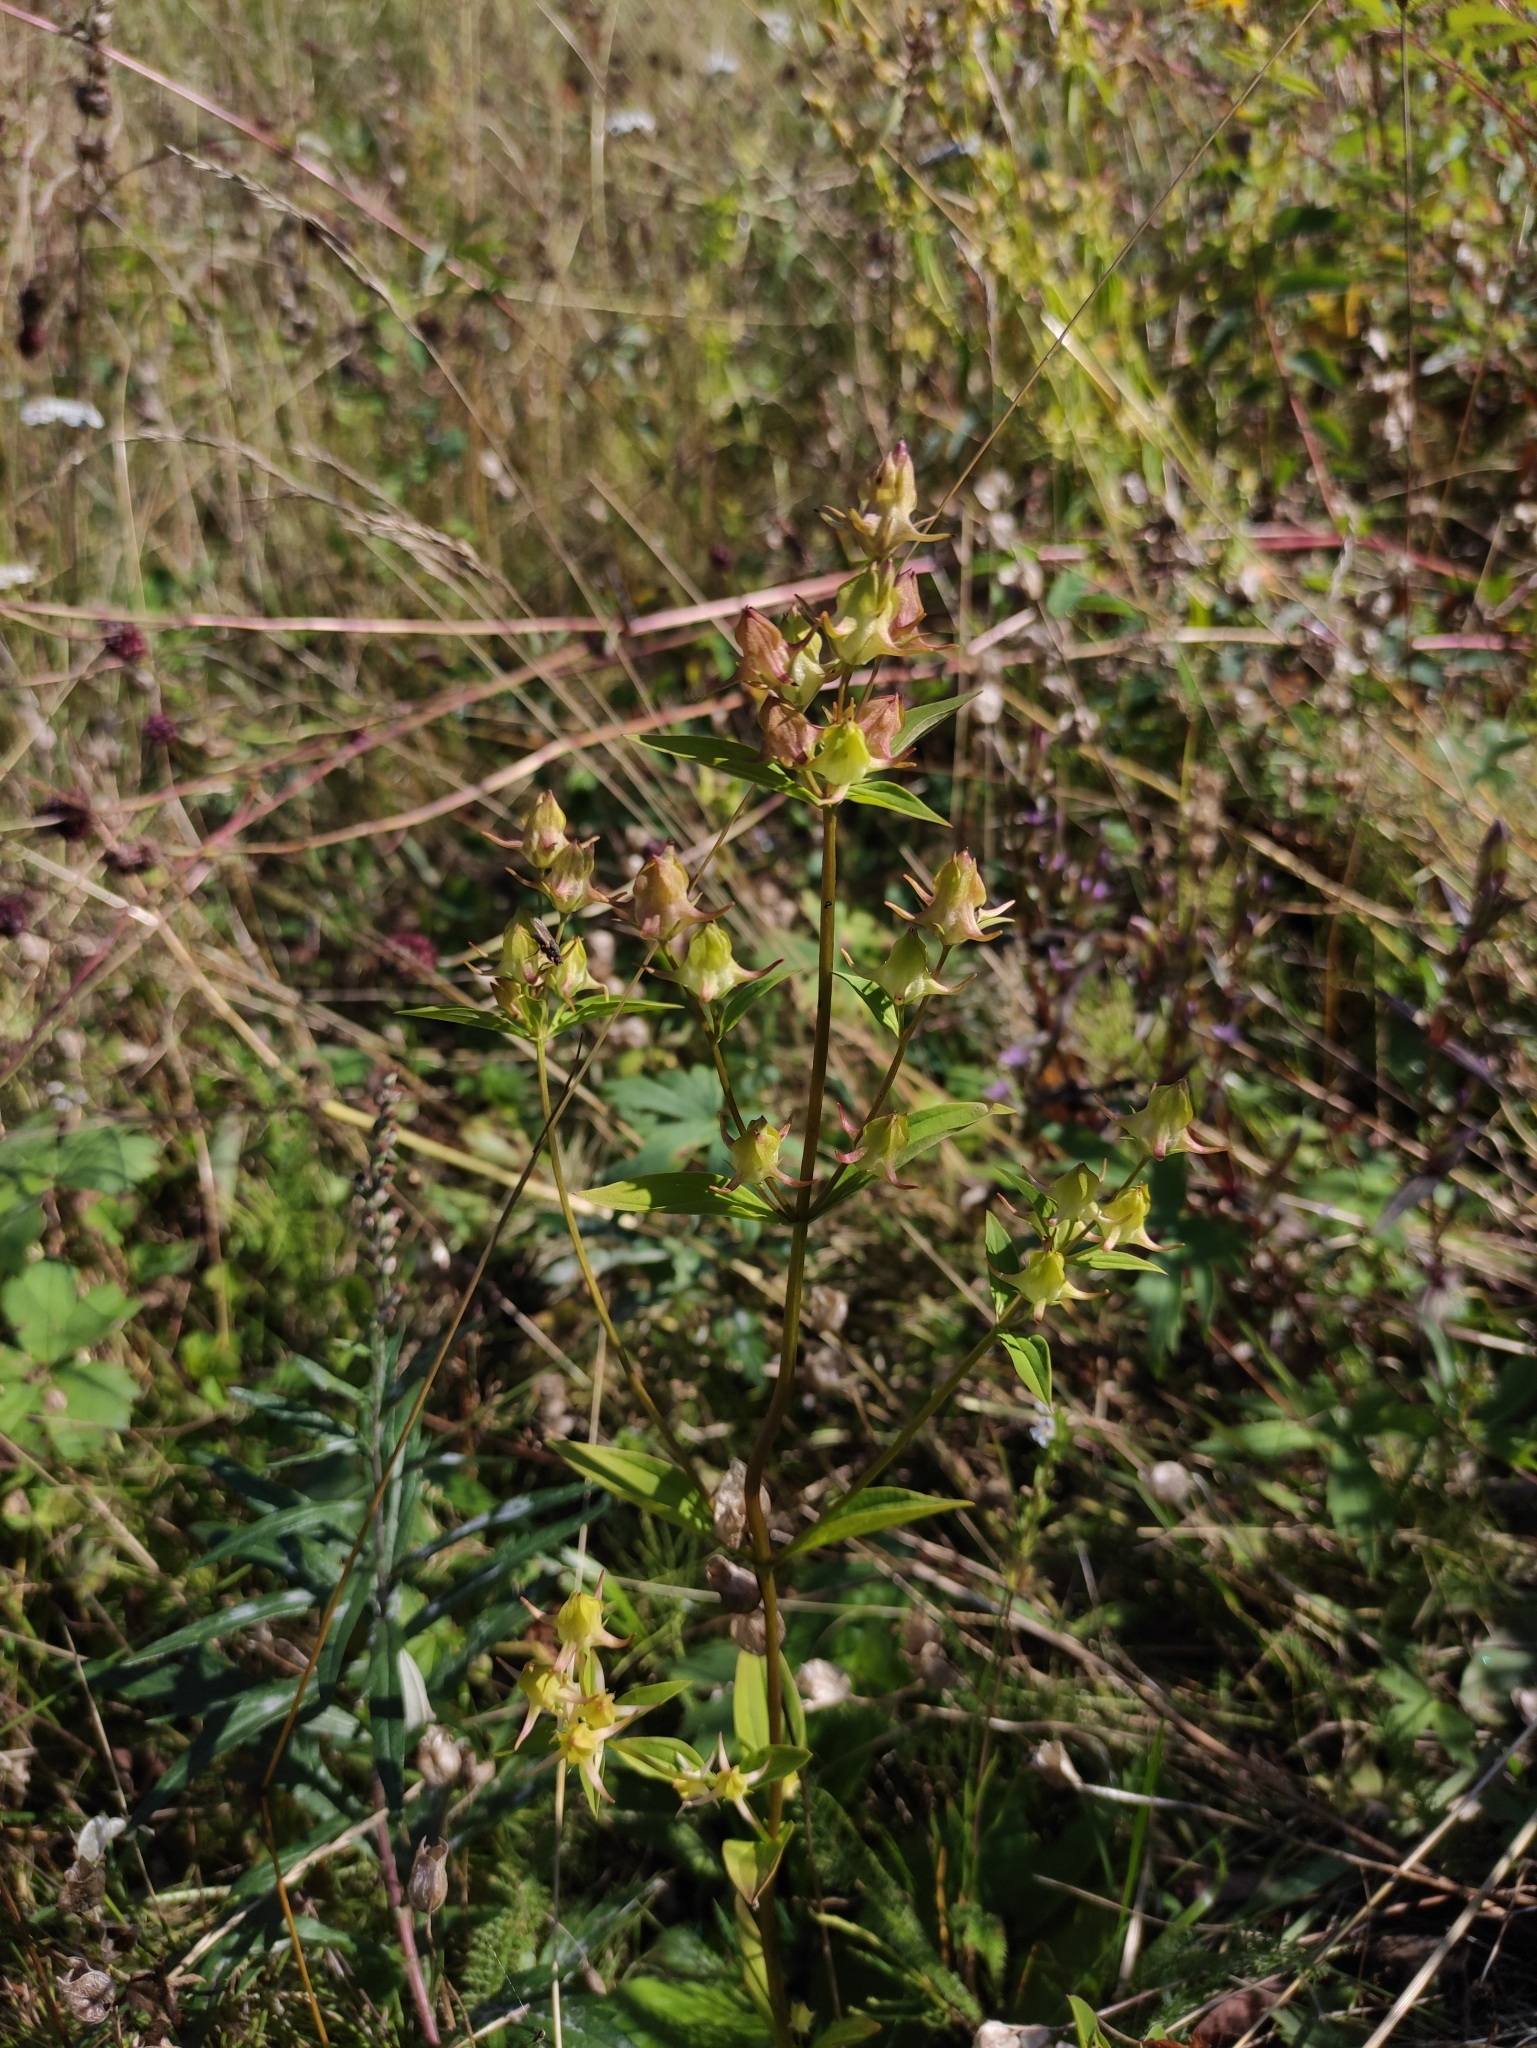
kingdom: Plantae
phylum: Tracheophyta
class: Magnoliopsida
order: Gentianales
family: Gentianaceae
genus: Halenia
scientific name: Halenia corniculata
